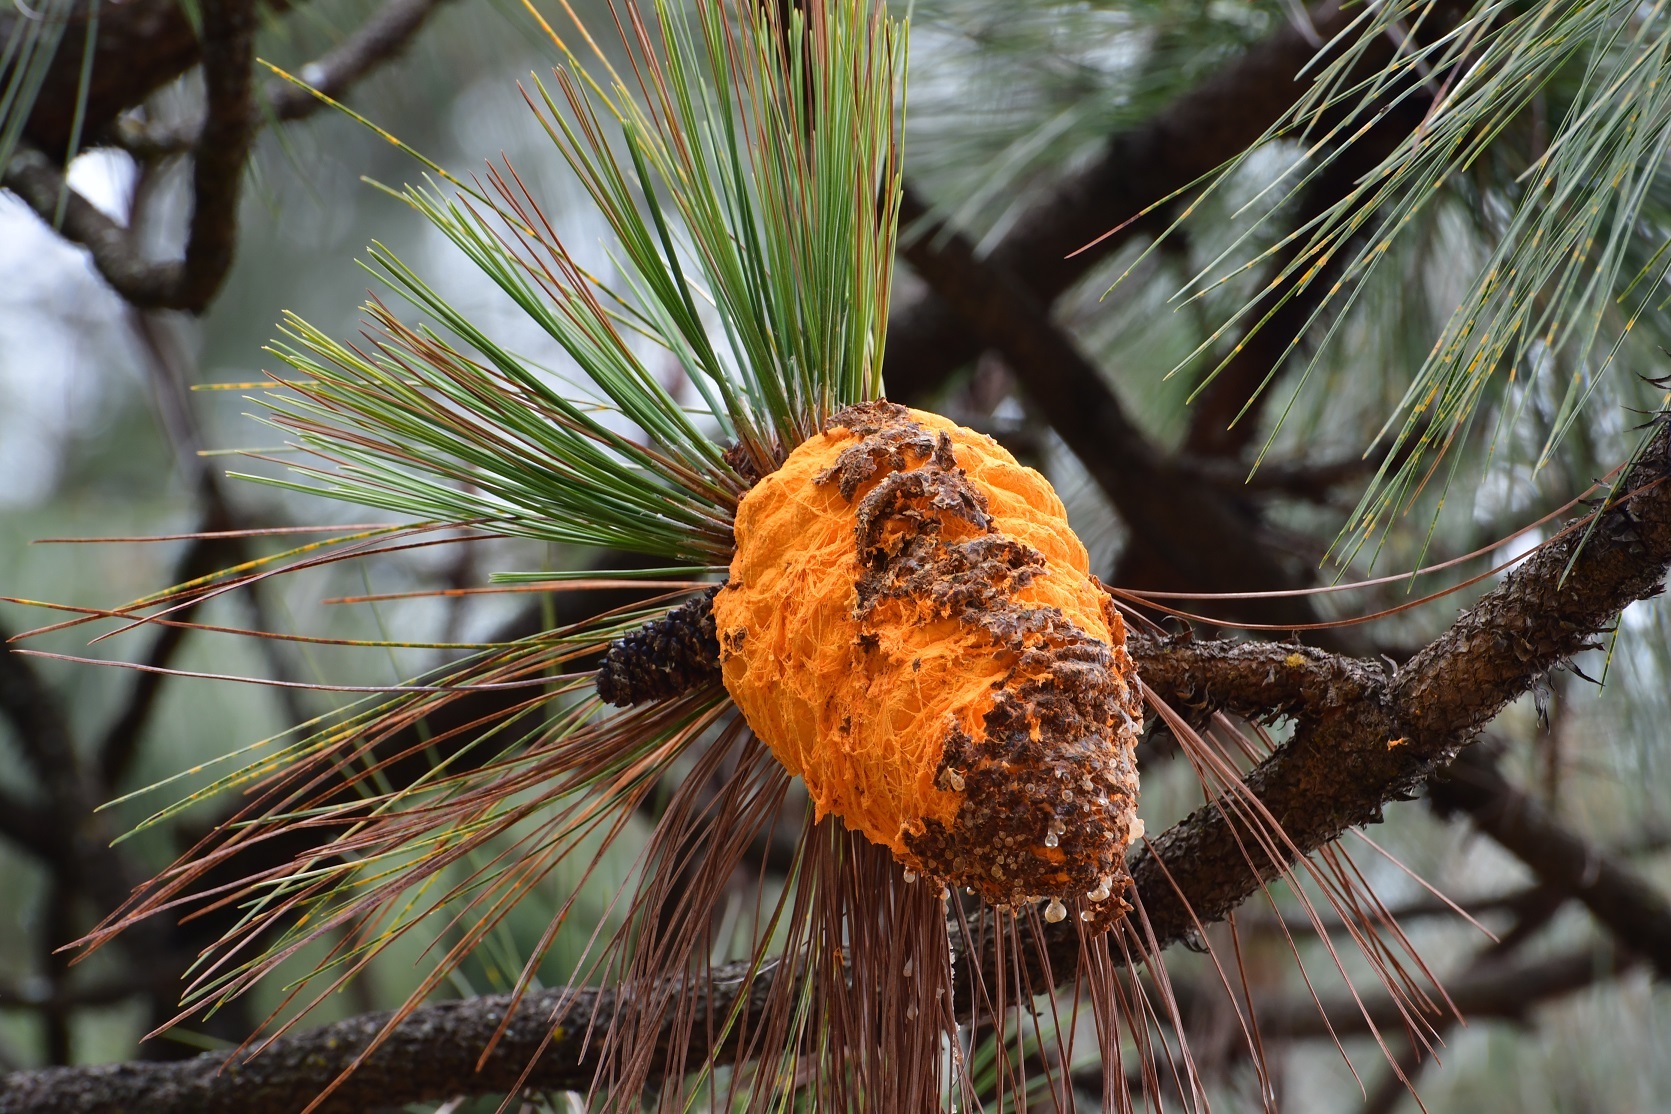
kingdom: Fungi
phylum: Basidiomycota
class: Pucciniomycetes
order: Pucciniales
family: Cronartiaceae
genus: Cronartium
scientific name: Cronartium conigenum
